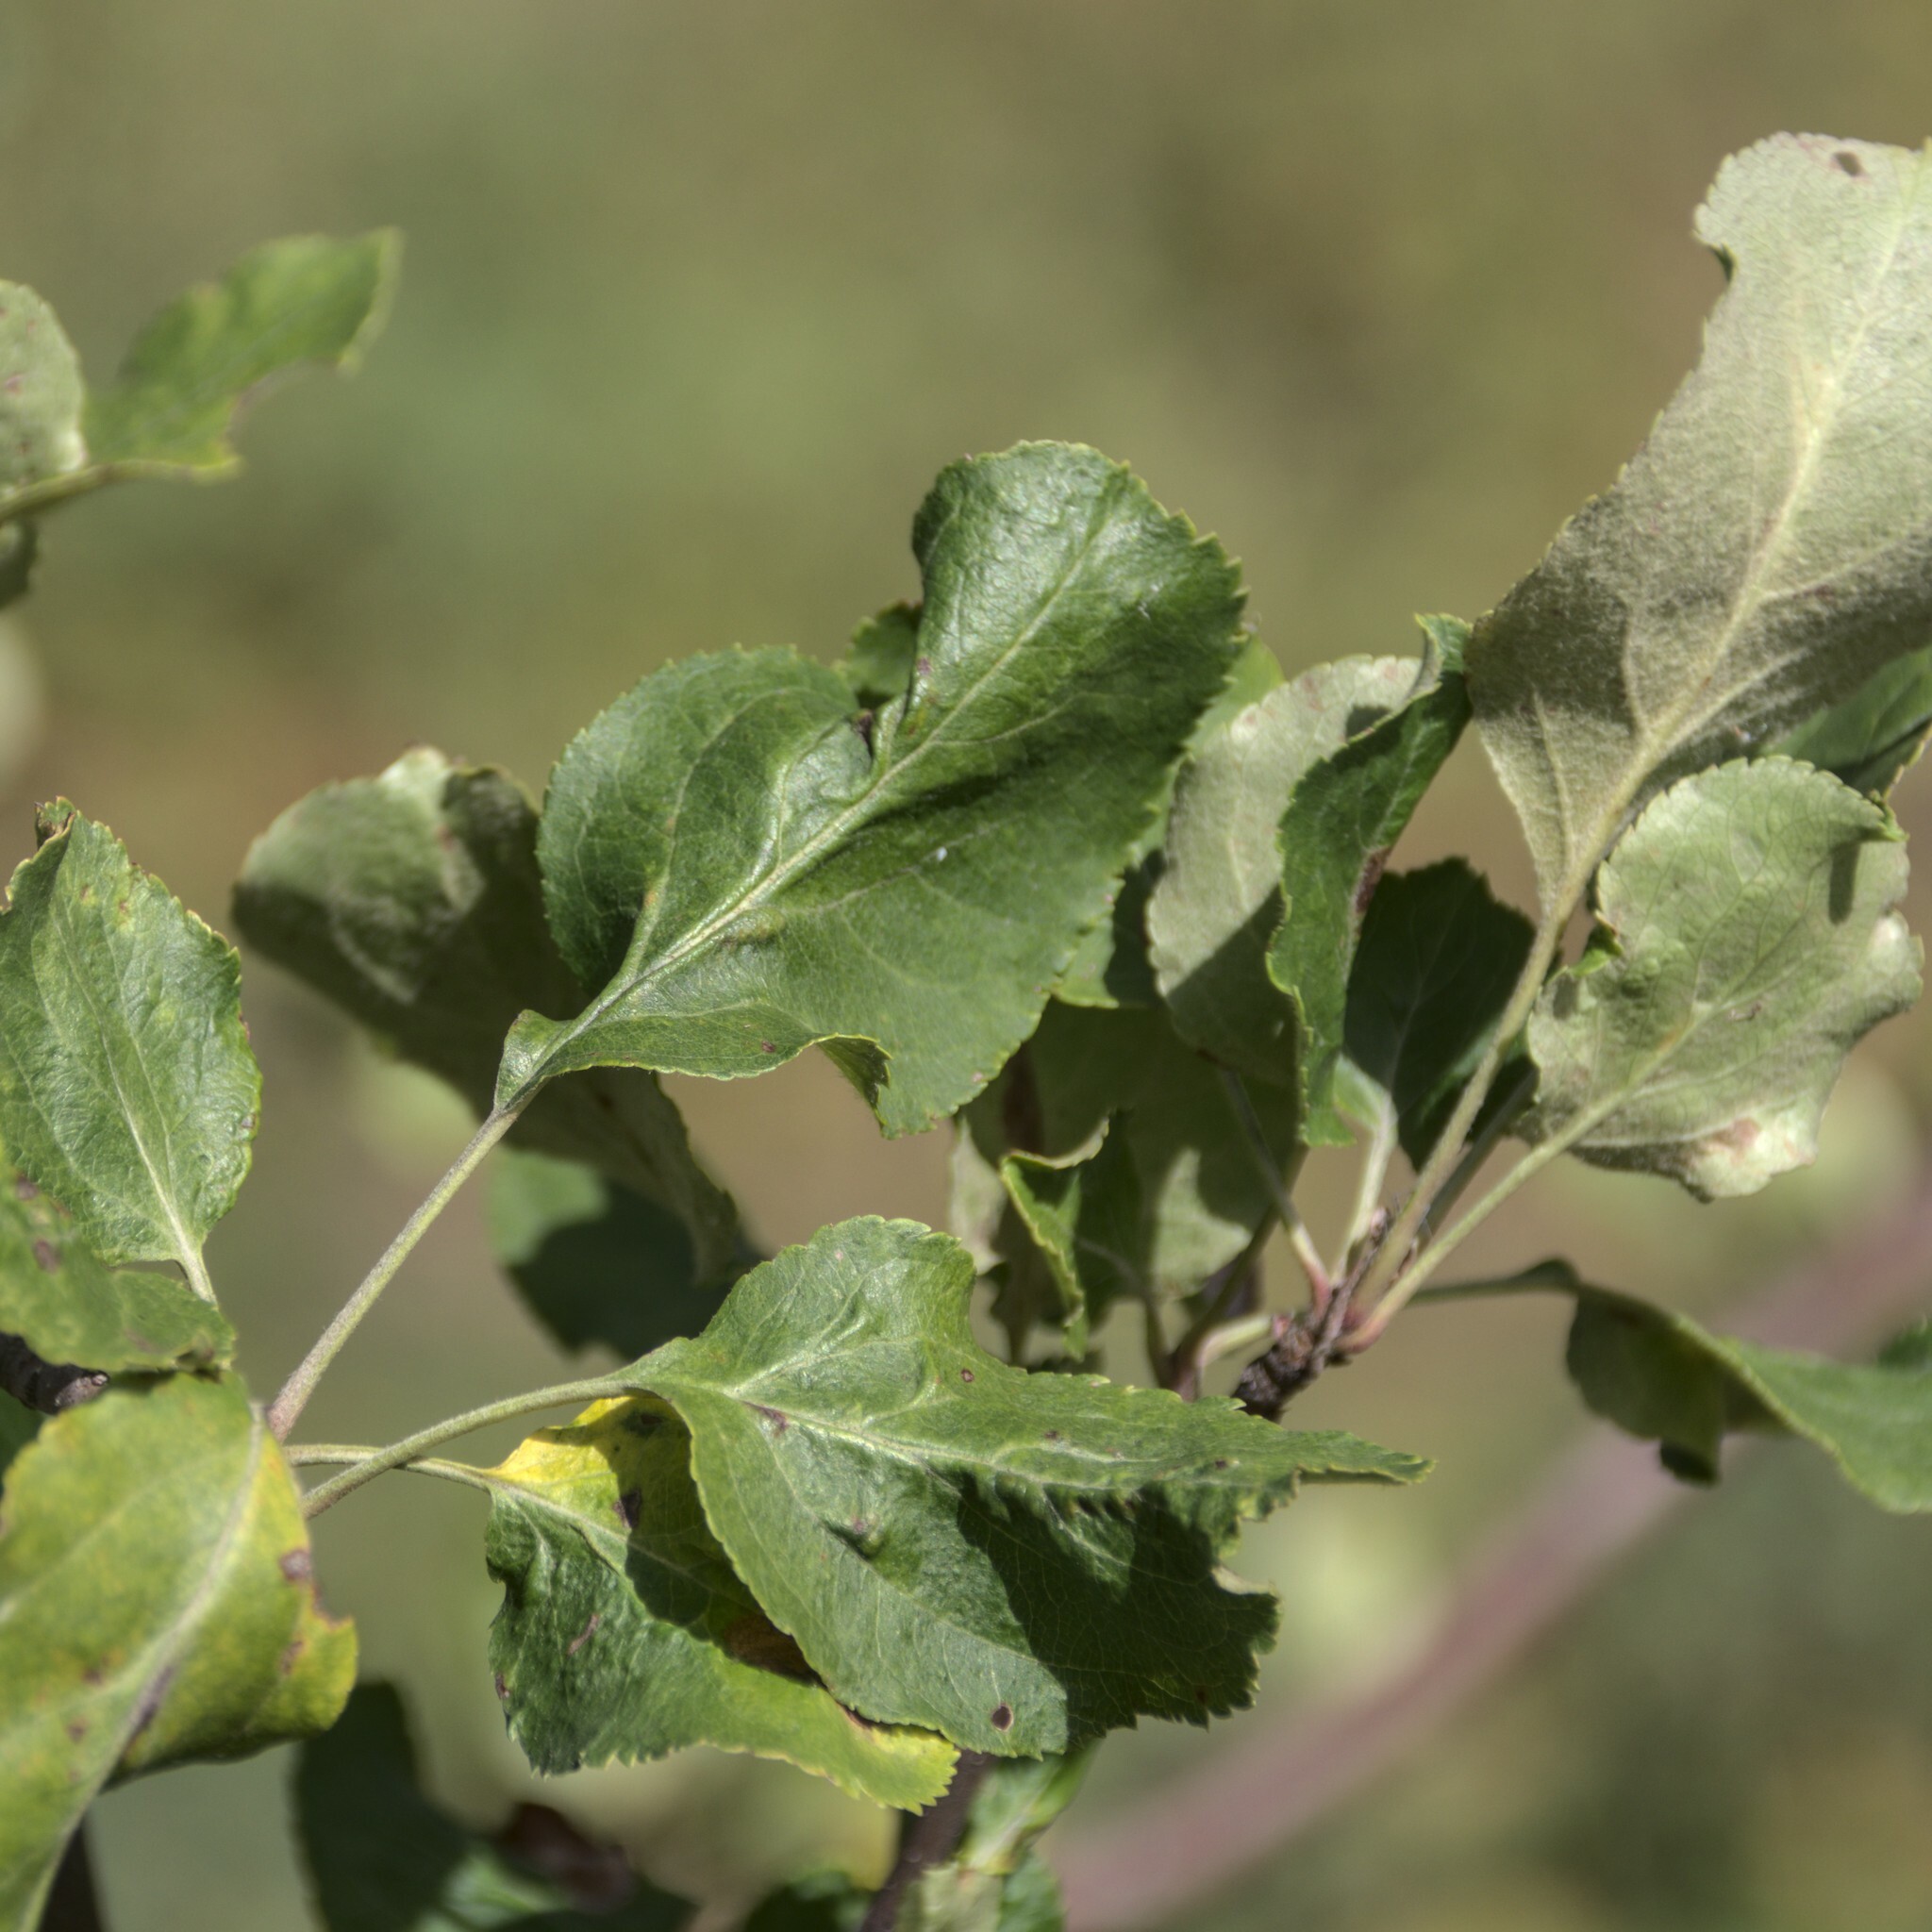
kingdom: Plantae
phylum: Tracheophyta
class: Magnoliopsida
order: Rosales
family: Rosaceae
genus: Malus
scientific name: Malus domestica
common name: Apple
